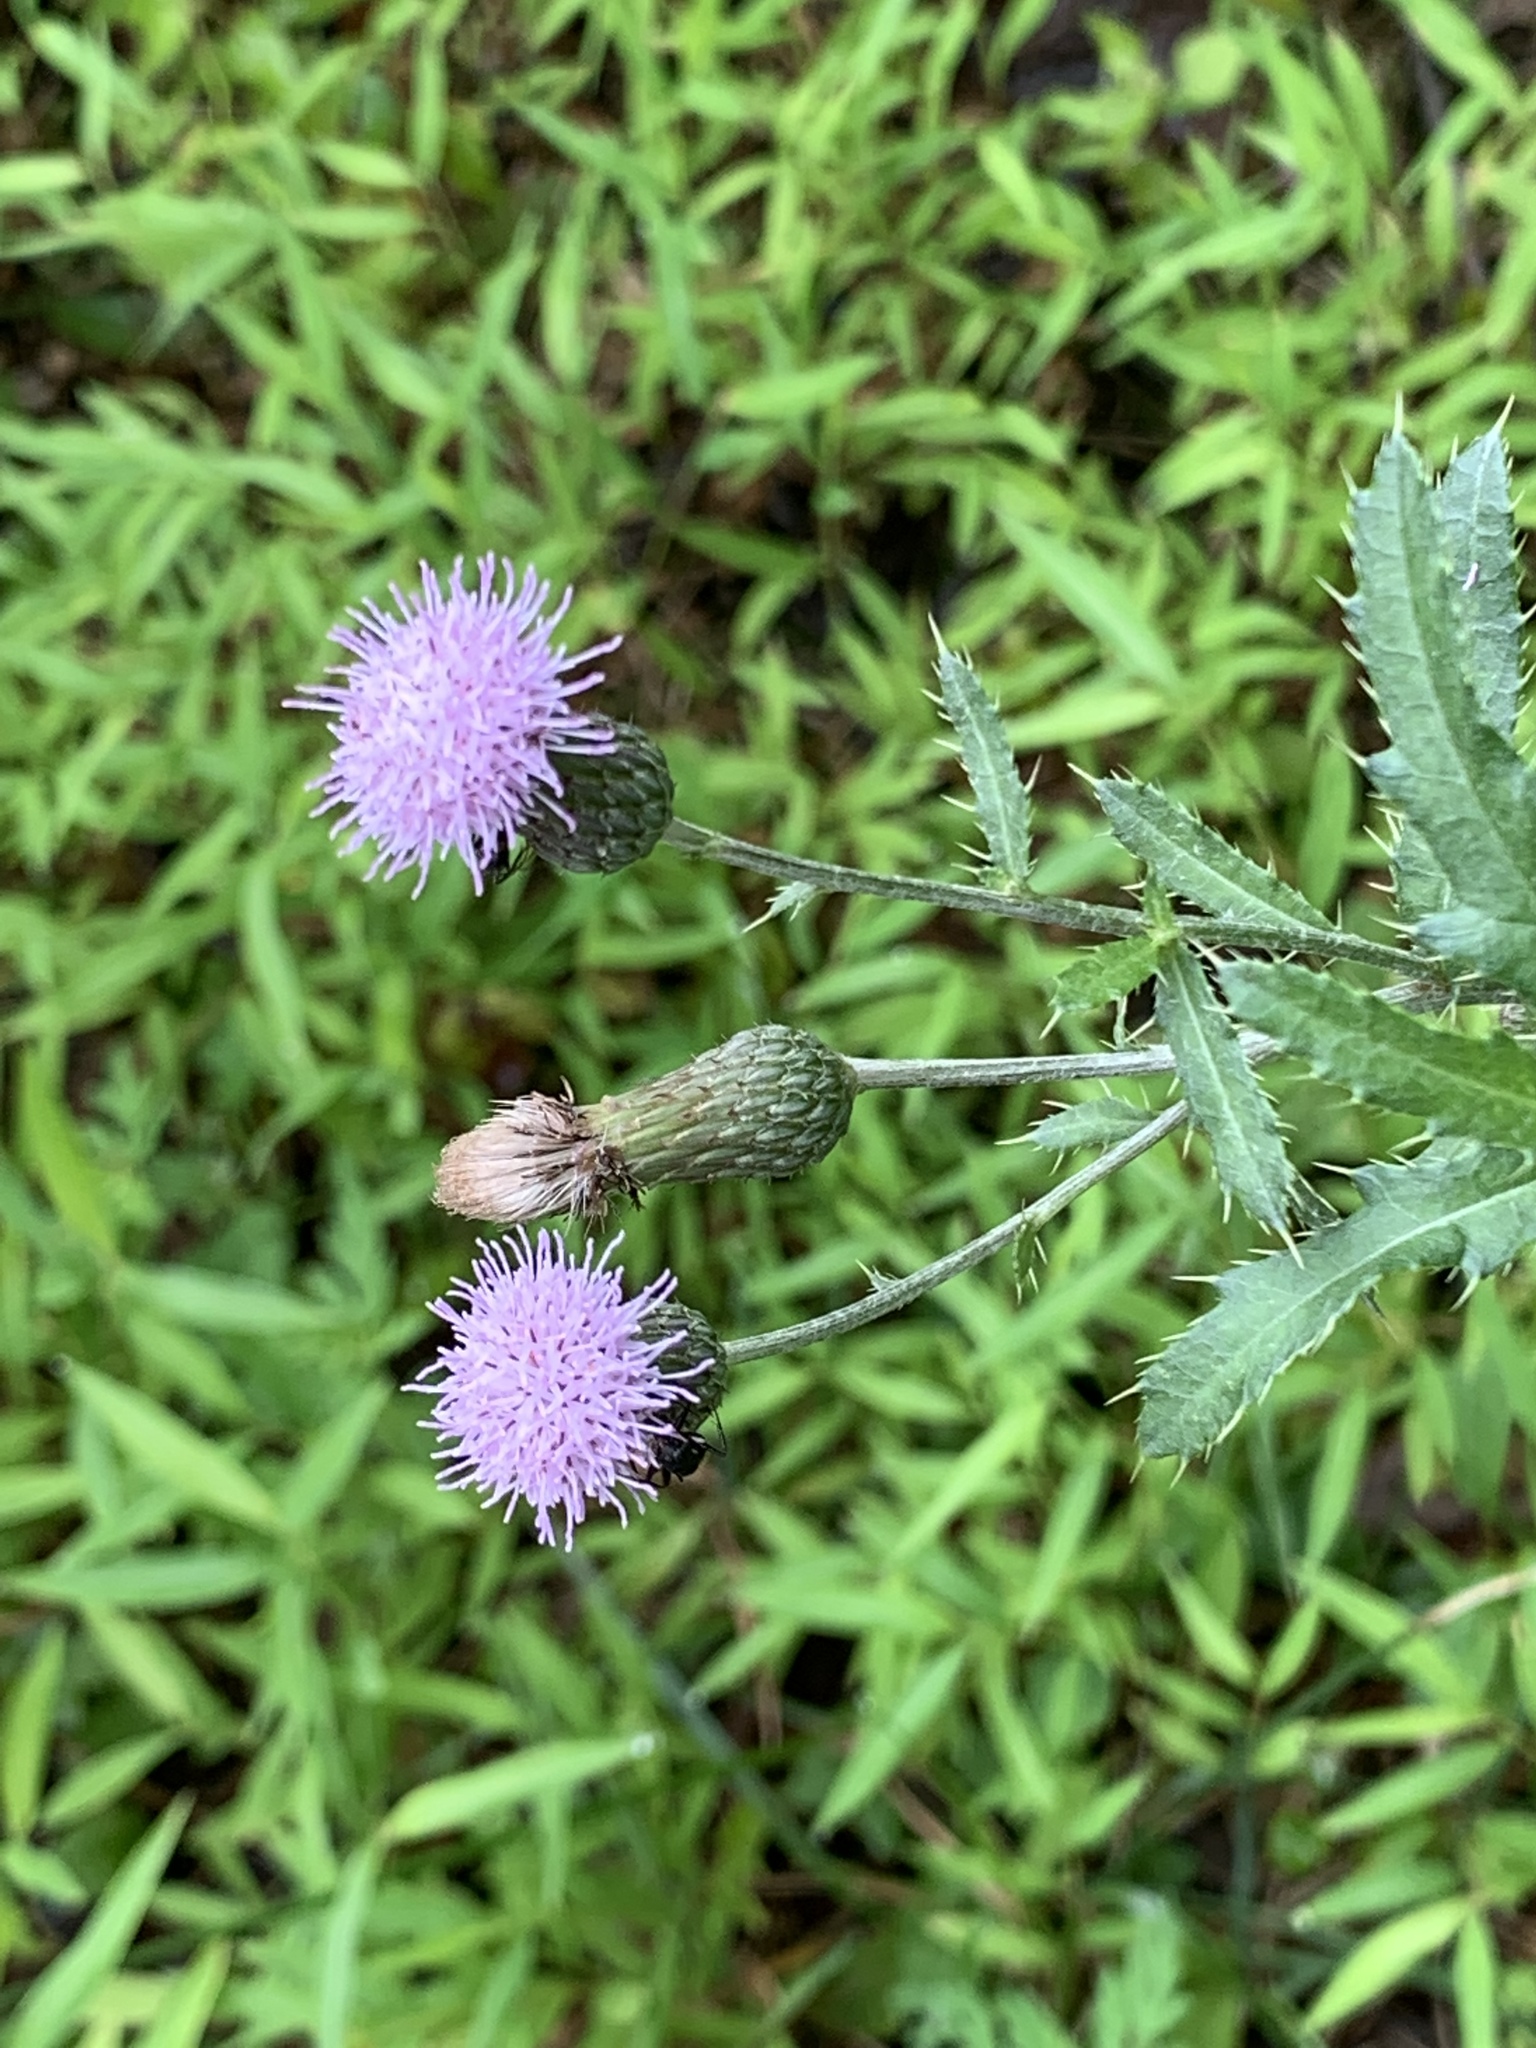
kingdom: Plantae
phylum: Tracheophyta
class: Magnoliopsida
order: Asterales
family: Asteraceae
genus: Cirsium
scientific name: Cirsium arvense
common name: Creeping thistle
